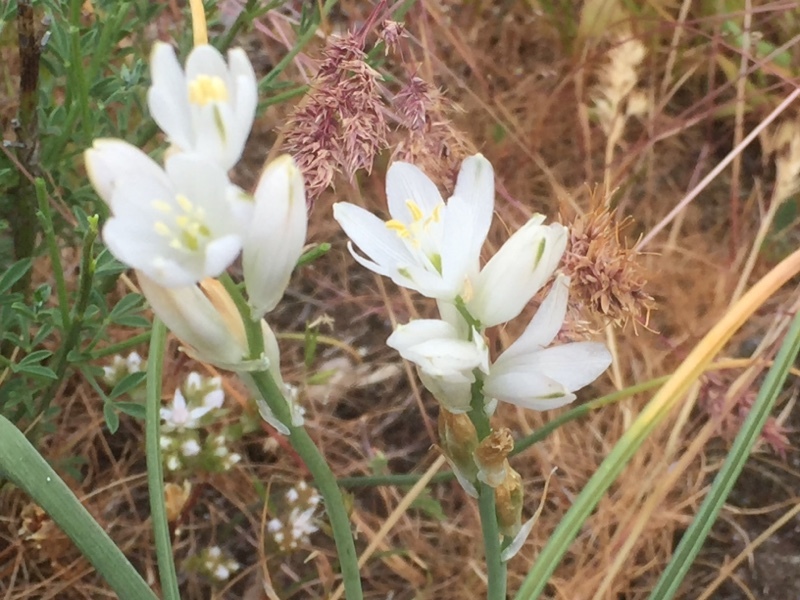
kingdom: Plantae
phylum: Tracheophyta
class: Liliopsida
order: Asparagales
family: Asparagaceae
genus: Ornithogalum
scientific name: Ornithogalum concinnum
